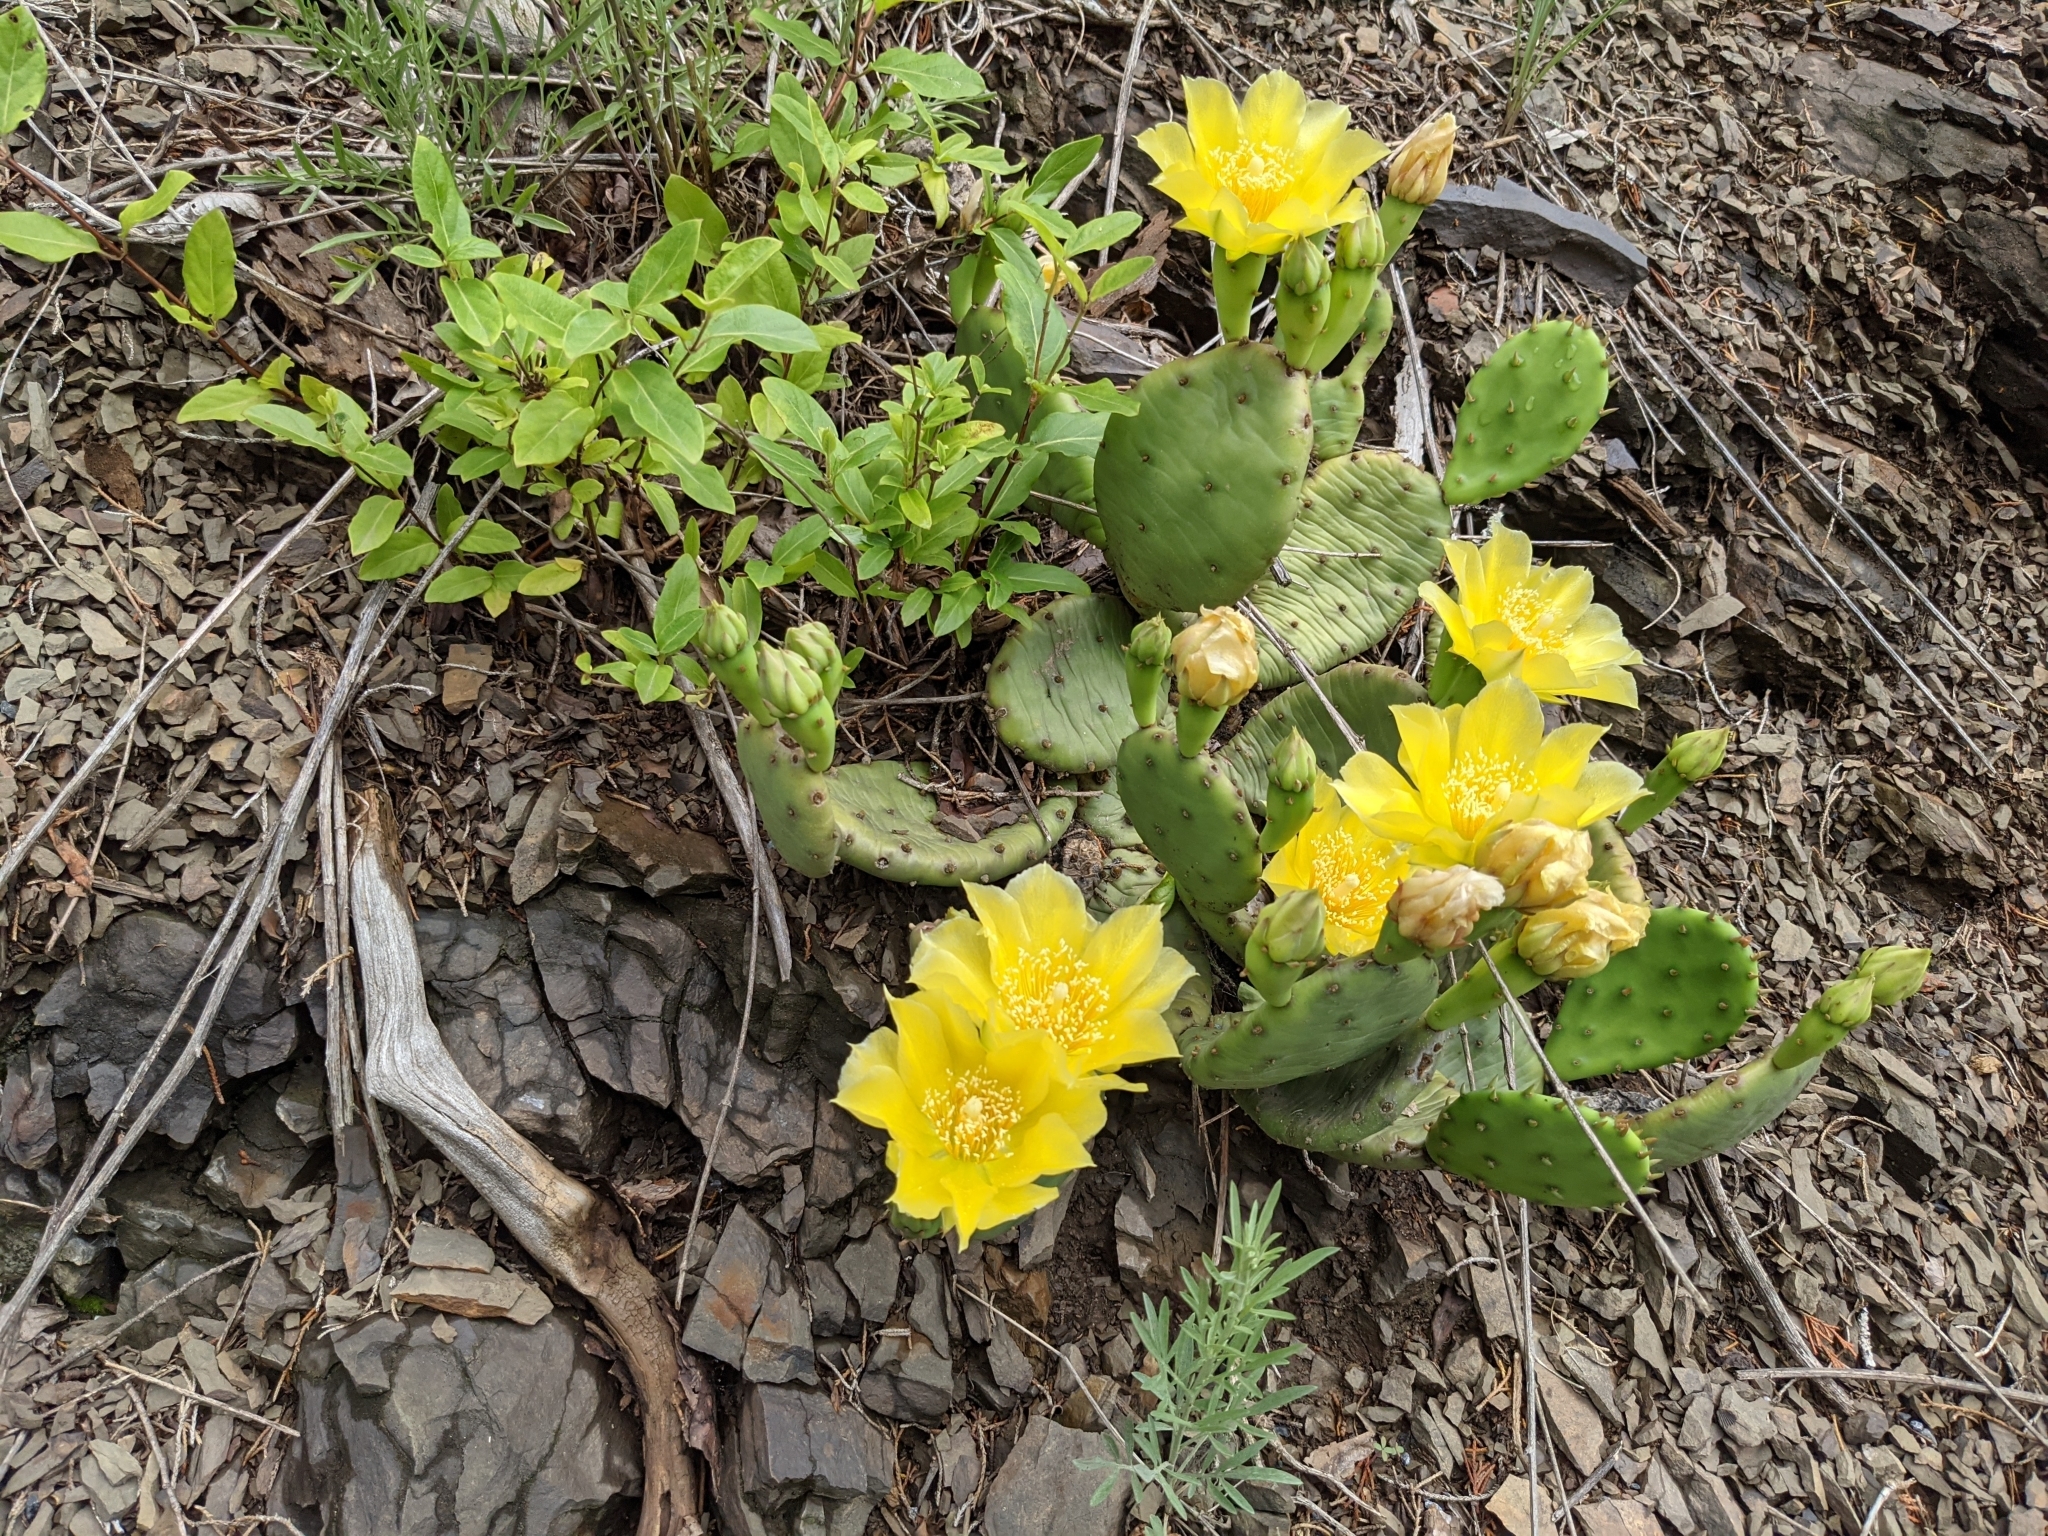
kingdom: Plantae
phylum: Tracheophyta
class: Magnoliopsida
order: Caryophyllales
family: Cactaceae
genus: Opuntia
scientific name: Opuntia humifusa
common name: Eastern prickly-pear
